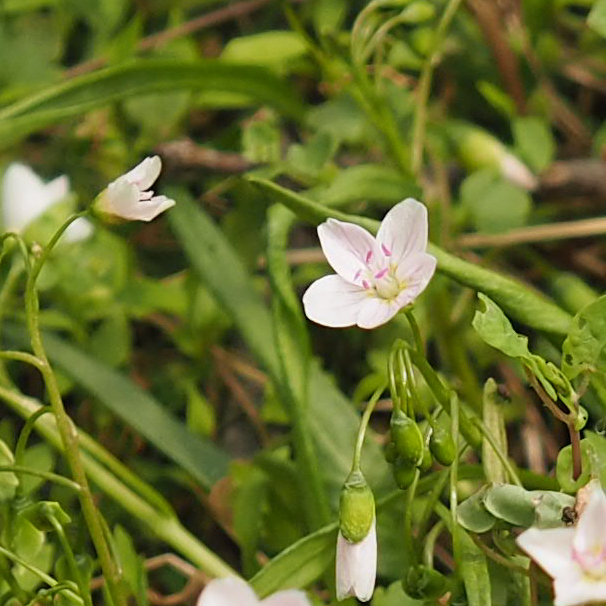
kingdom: Plantae
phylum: Tracheophyta
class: Magnoliopsida
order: Caryophyllales
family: Montiaceae
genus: Claytonia
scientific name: Claytonia virginica
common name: Virginia springbeauty
